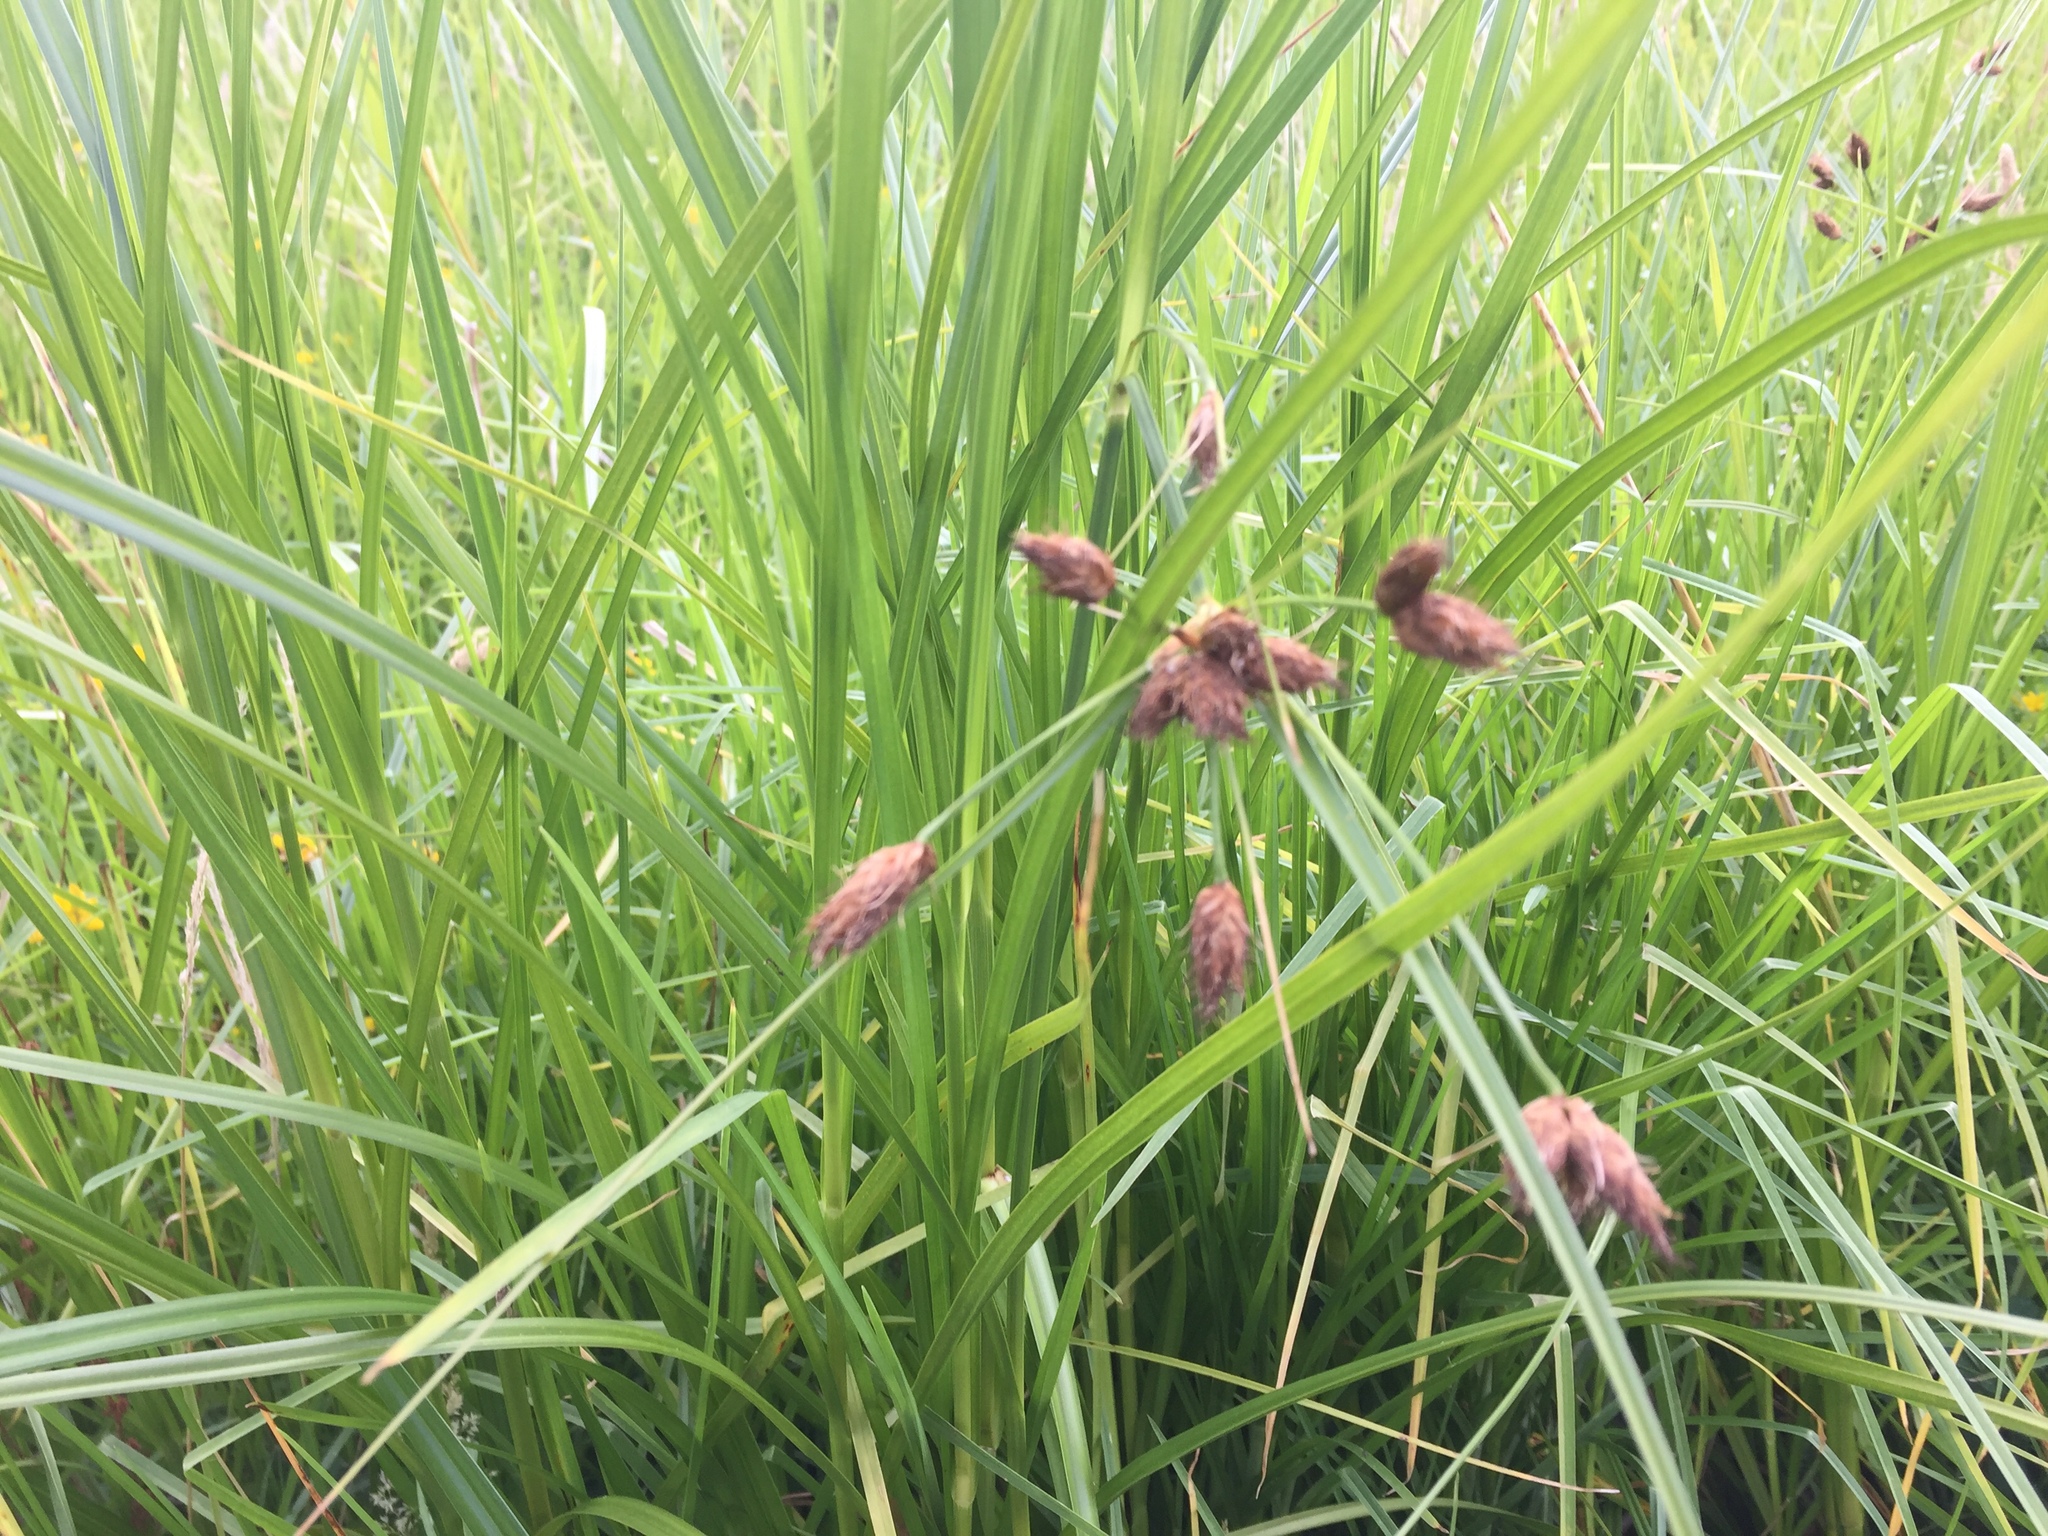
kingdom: Plantae
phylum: Tracheophyta
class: Liliopsida
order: Poales
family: Cyperaceae
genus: Bolboschoenus
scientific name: Bolboschoenus fluviatilis
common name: River bulrush
